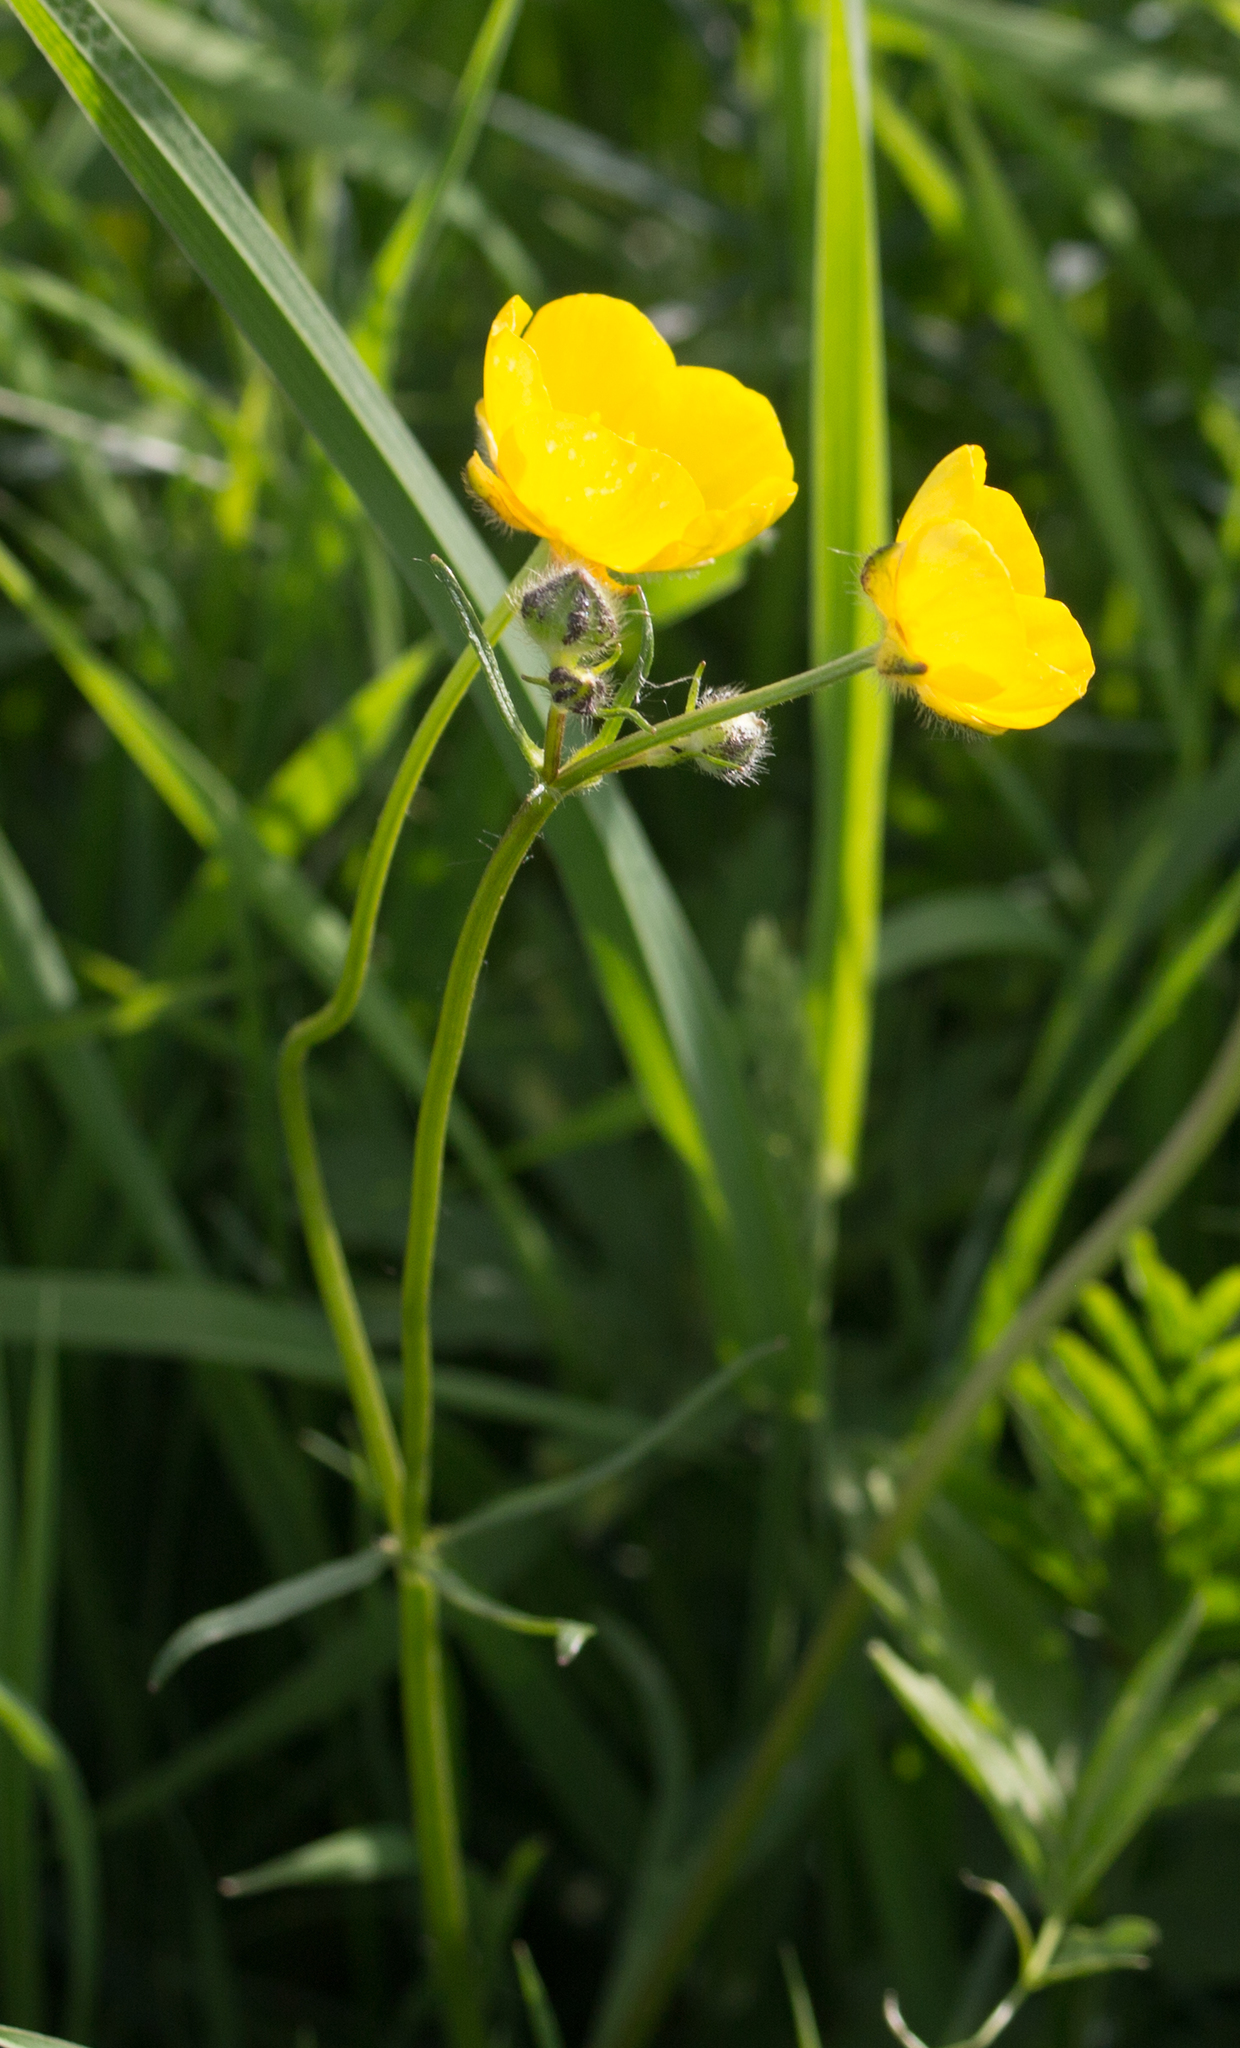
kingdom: Plantae
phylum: Tracheophyta
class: Magnoliopsida
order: Ranunculales
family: Ranunculaceae
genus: Ranunculus
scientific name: Ranunculus polyanthemos
